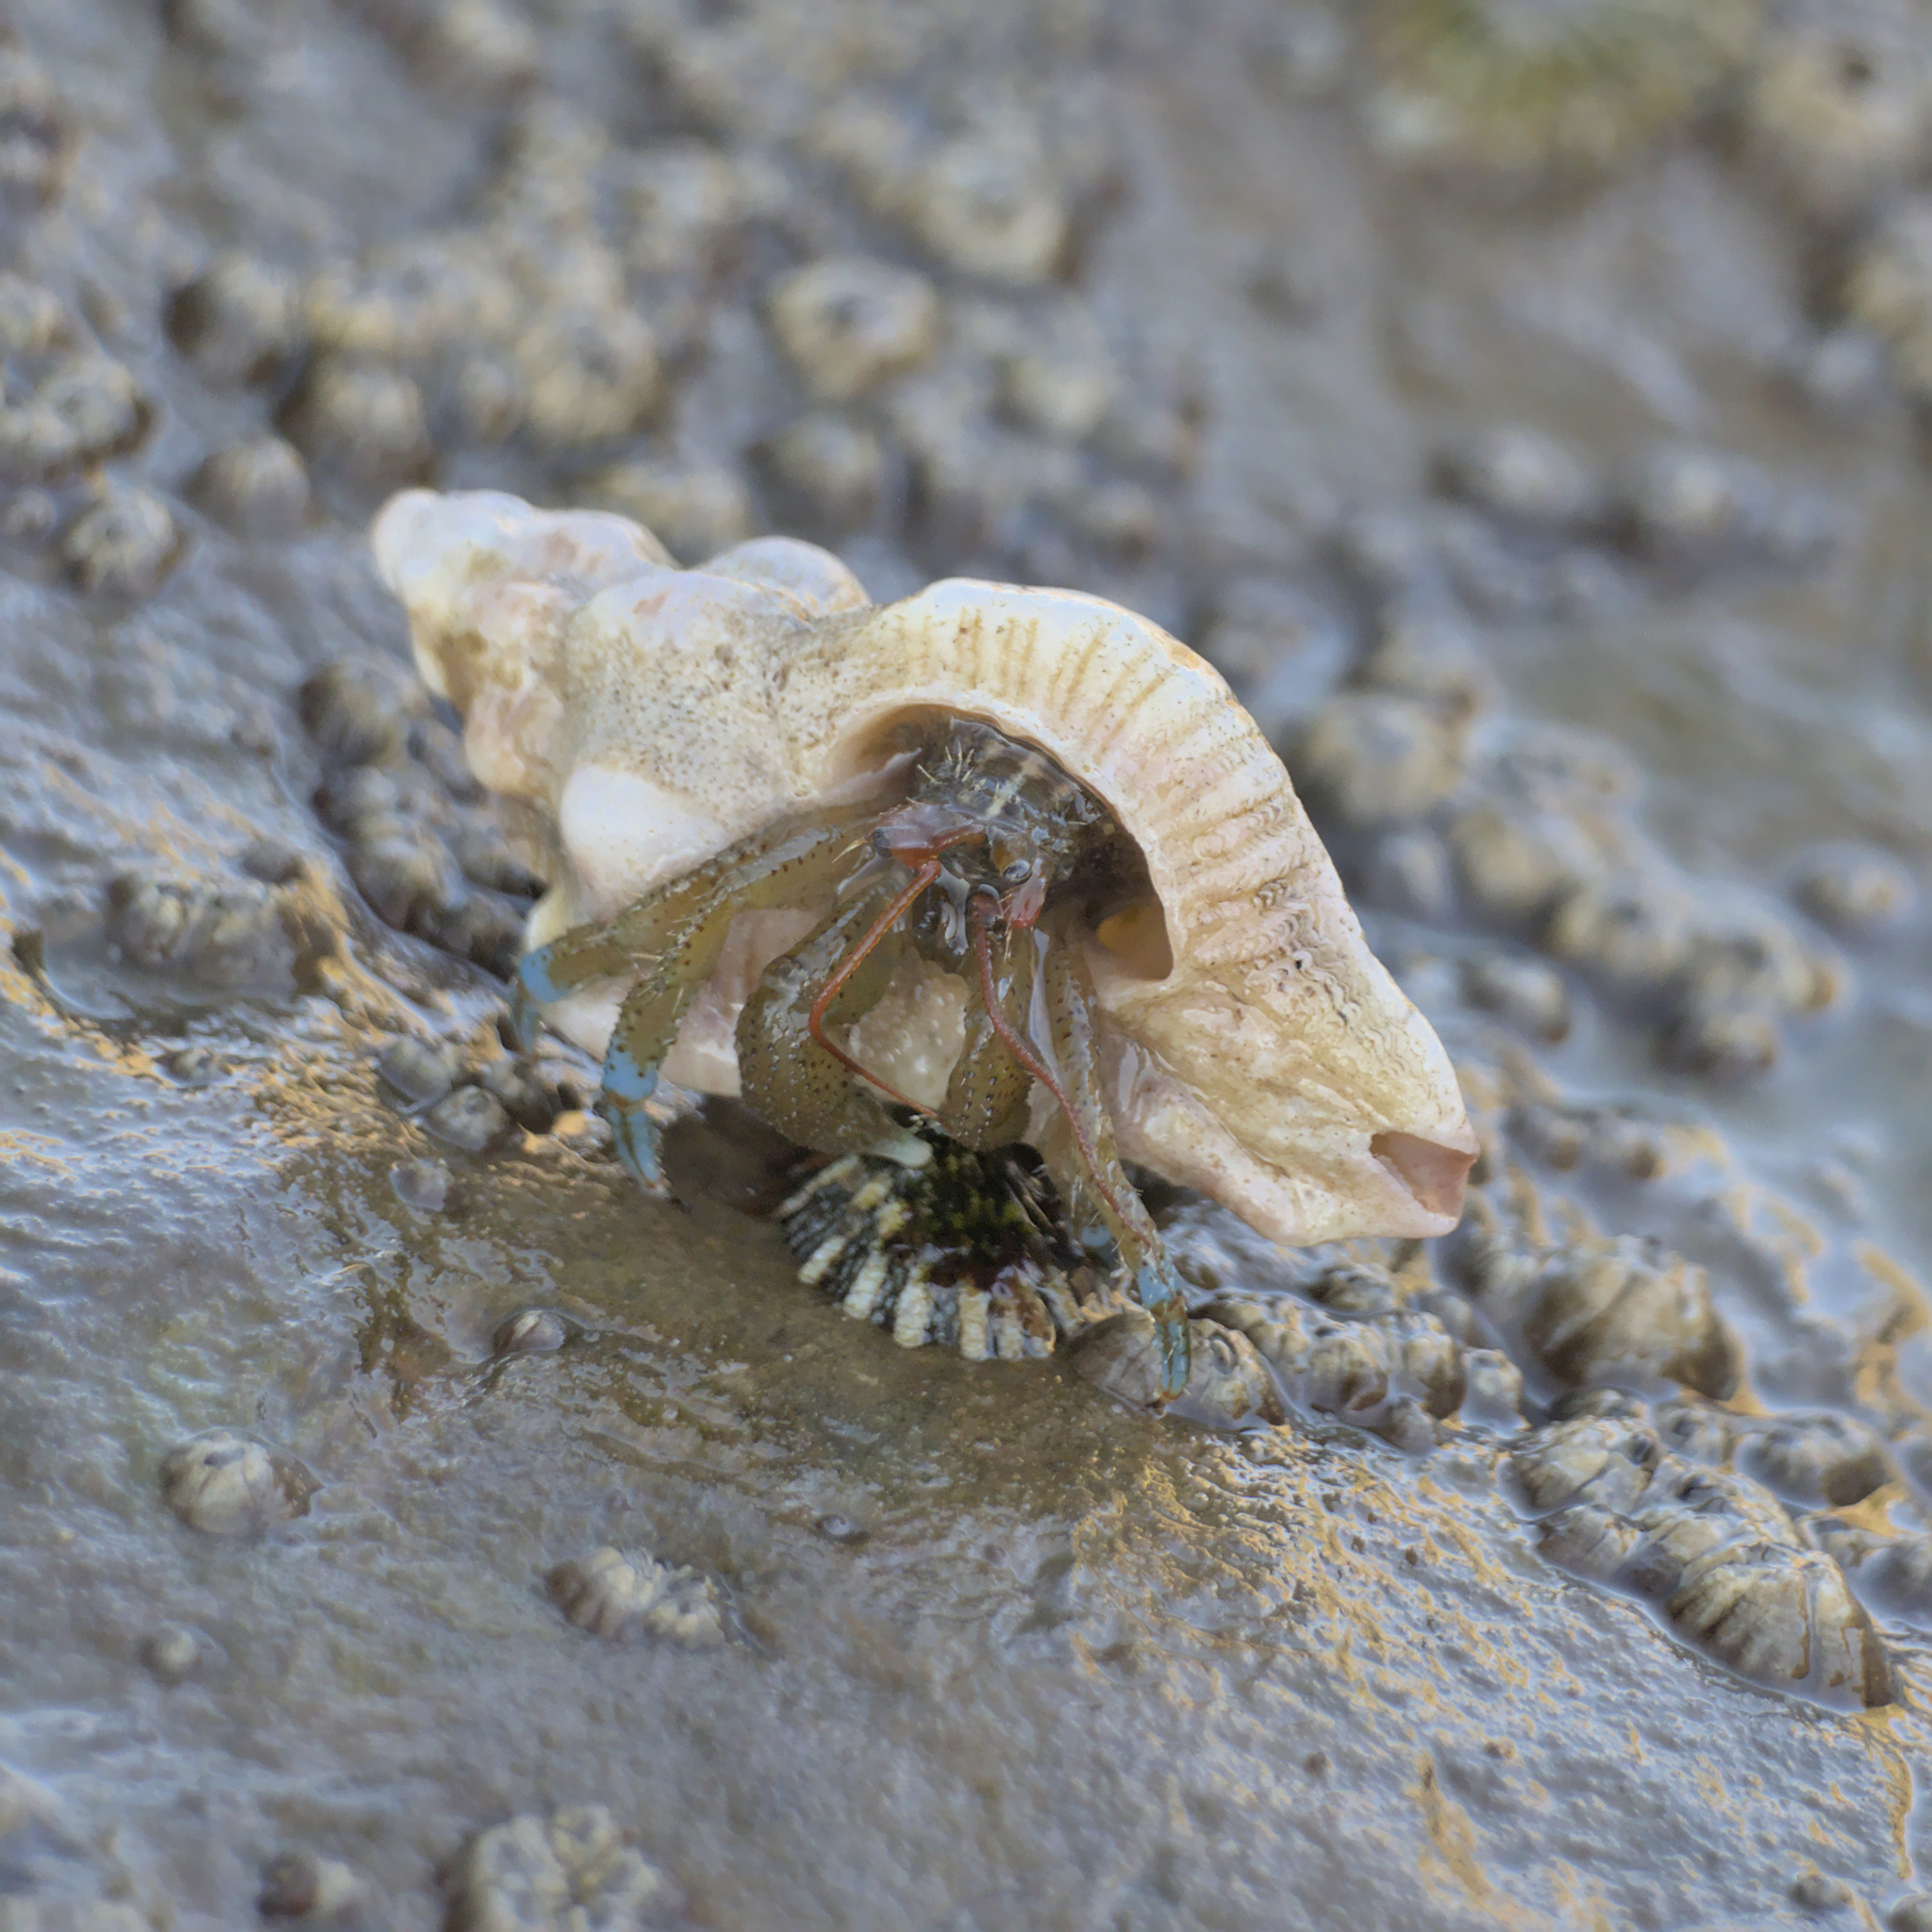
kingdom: Animalia
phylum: Arthropoda
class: Malacostraca
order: Decapoda
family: Paguridae
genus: Pagurus
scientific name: Pagurus samuelis
